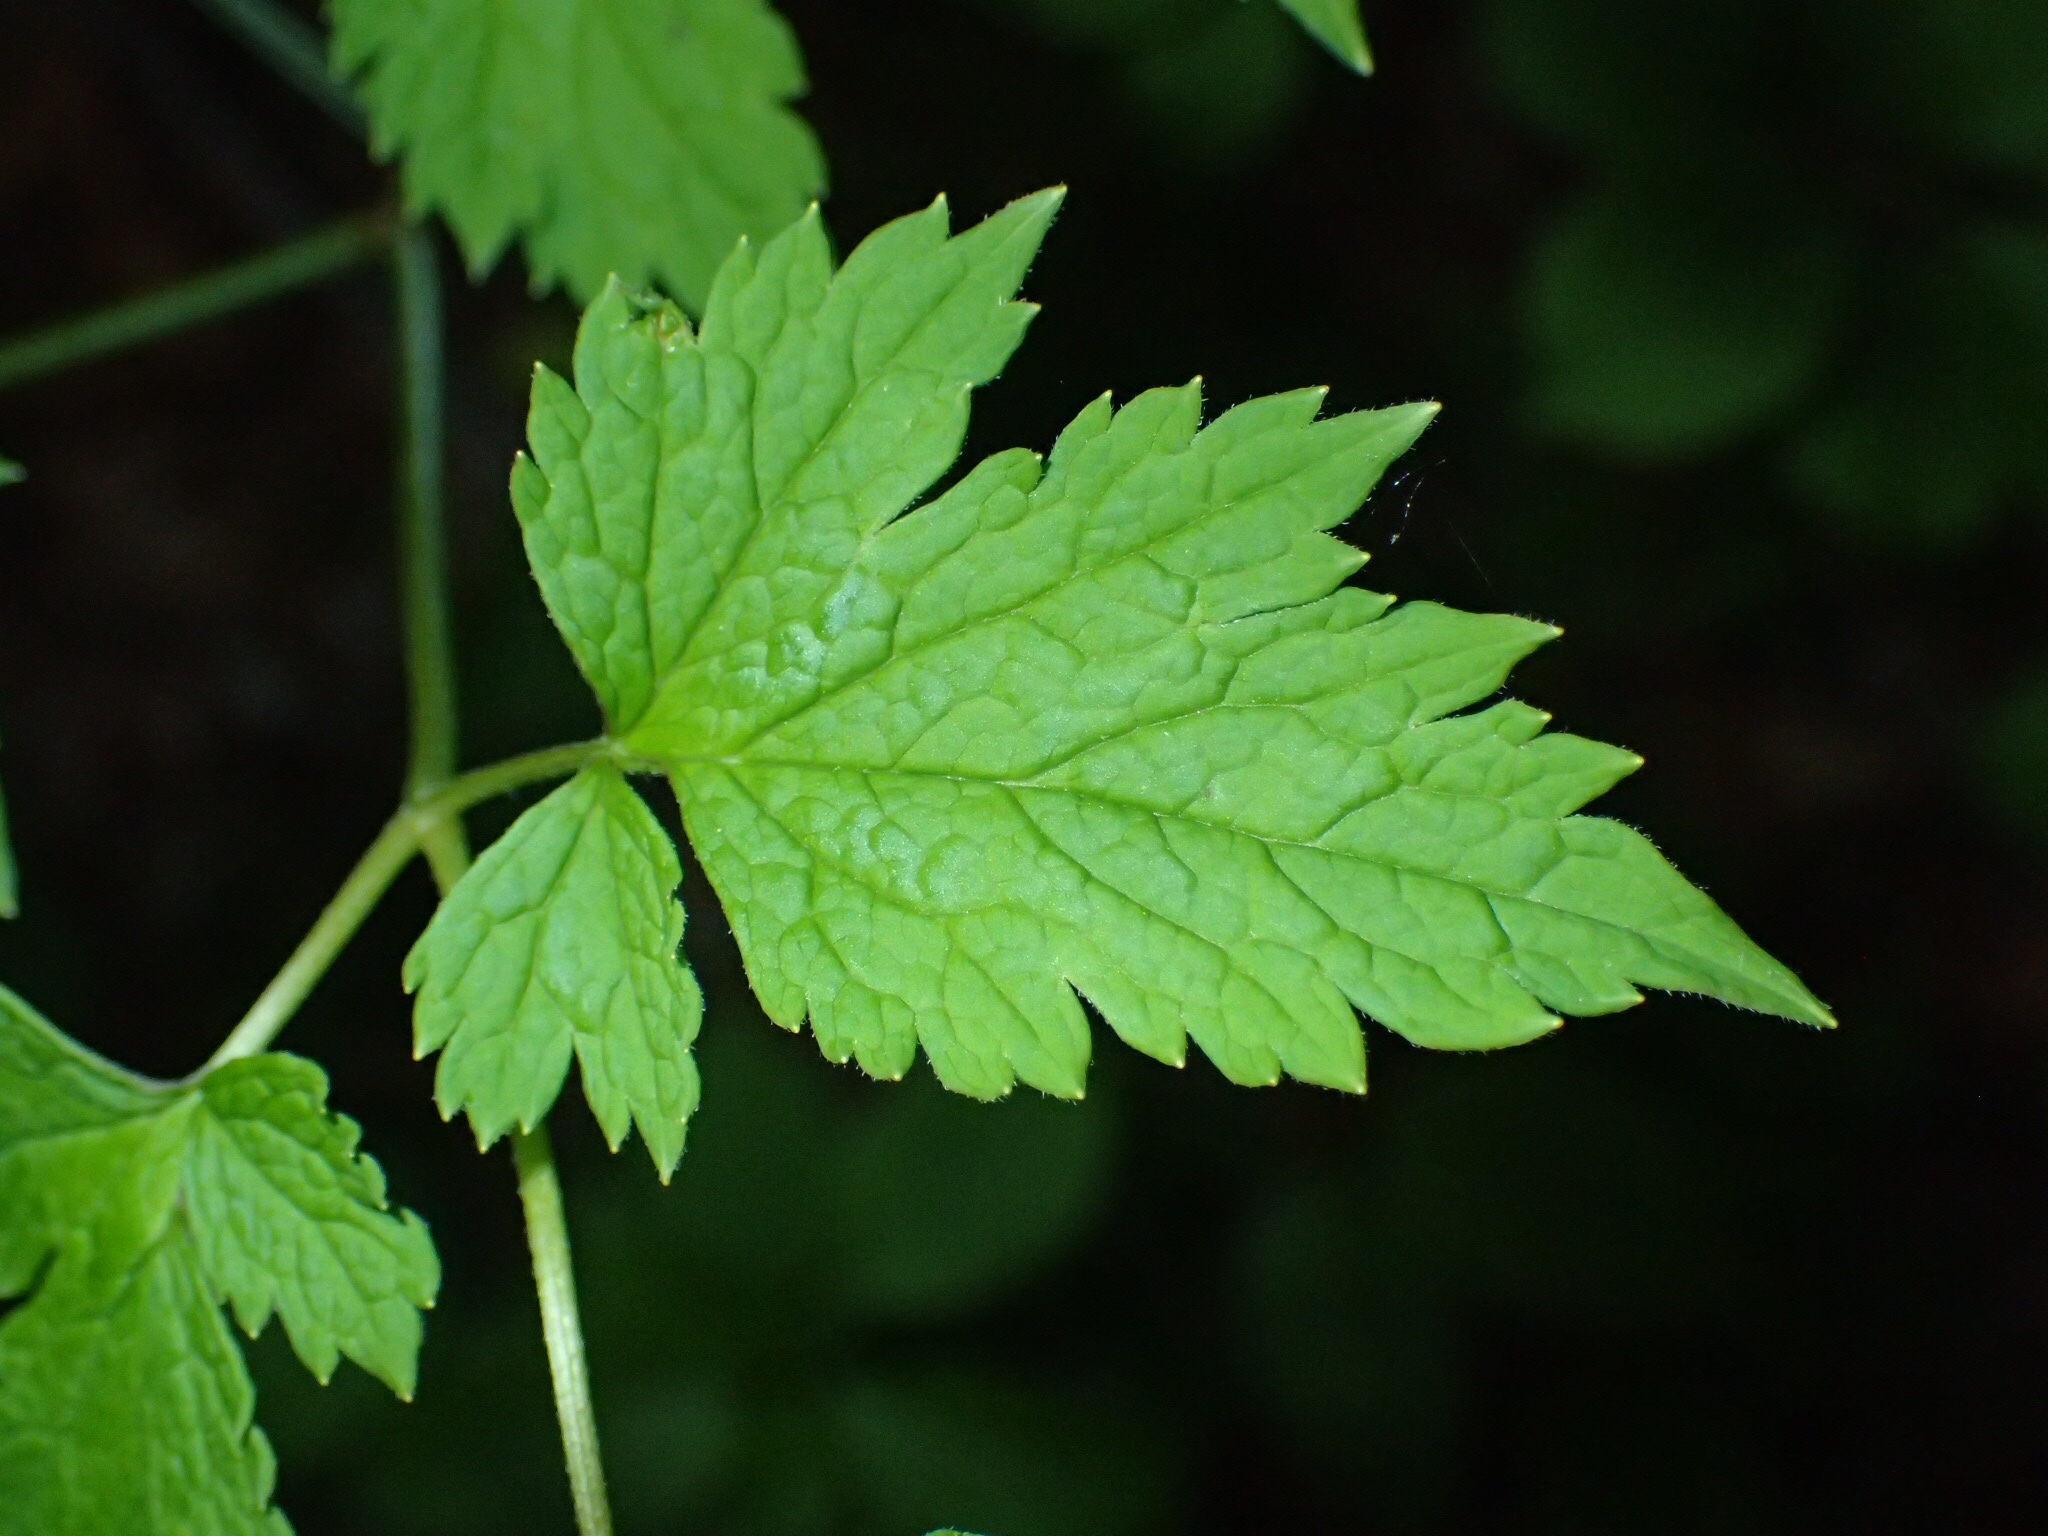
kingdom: Plantae
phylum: Tracheophyta
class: Magnoliopsida
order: Ranunculales
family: Ranunculaceae
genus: Actaea
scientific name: Actaea rubra
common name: Red baneberry
